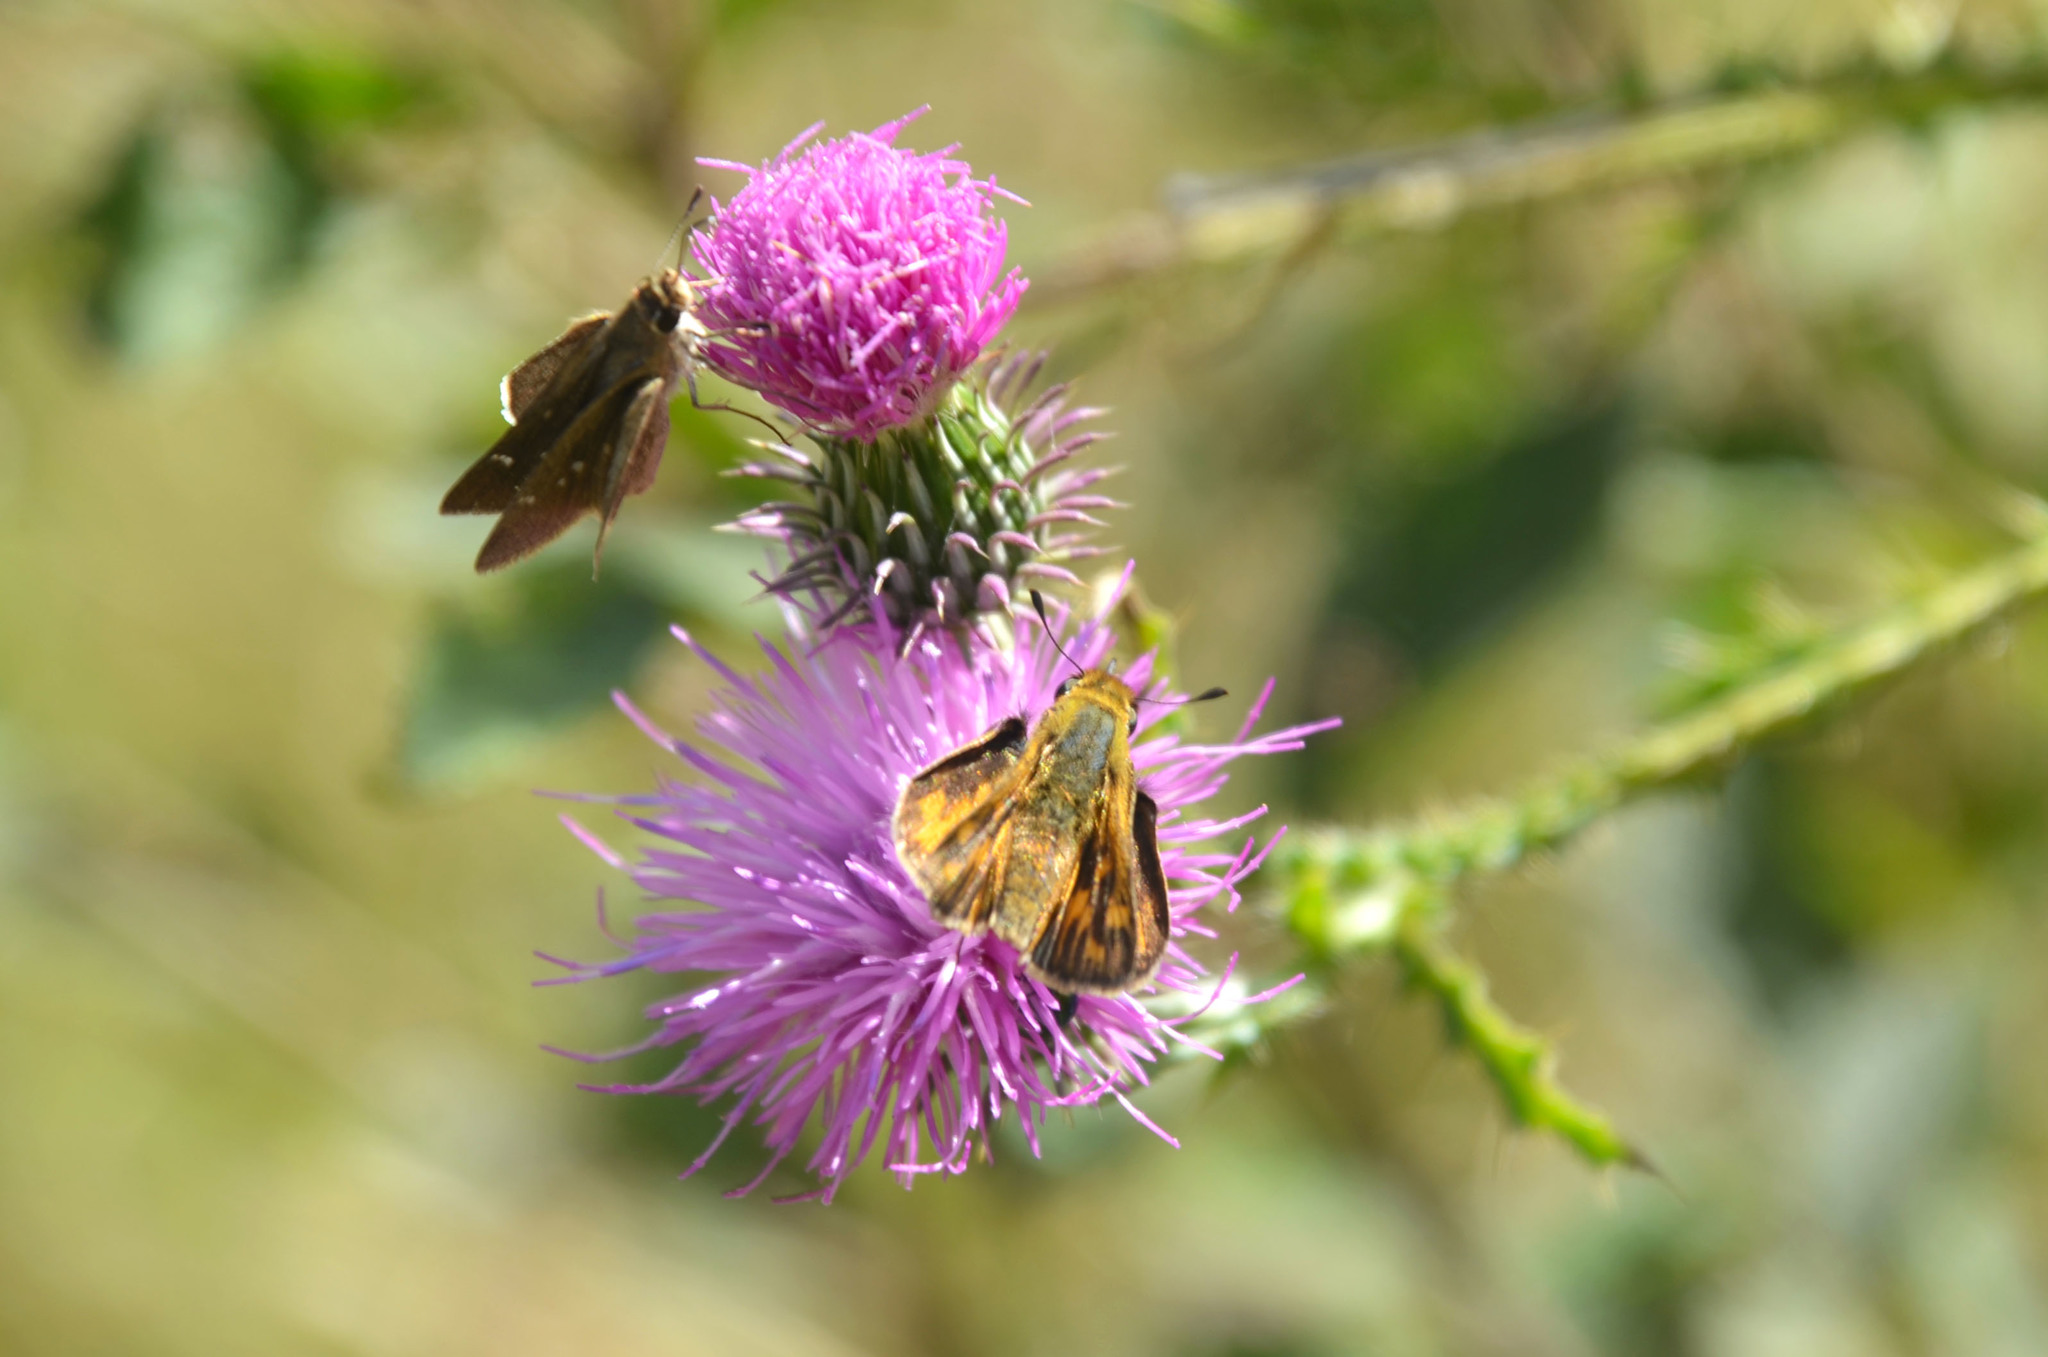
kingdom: Plantae
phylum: Tracheophyta
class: Magnoliopsida
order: Asterales
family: Asteraceae
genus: Carduus
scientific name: Carduus acanthoides
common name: Plumeless thistle
